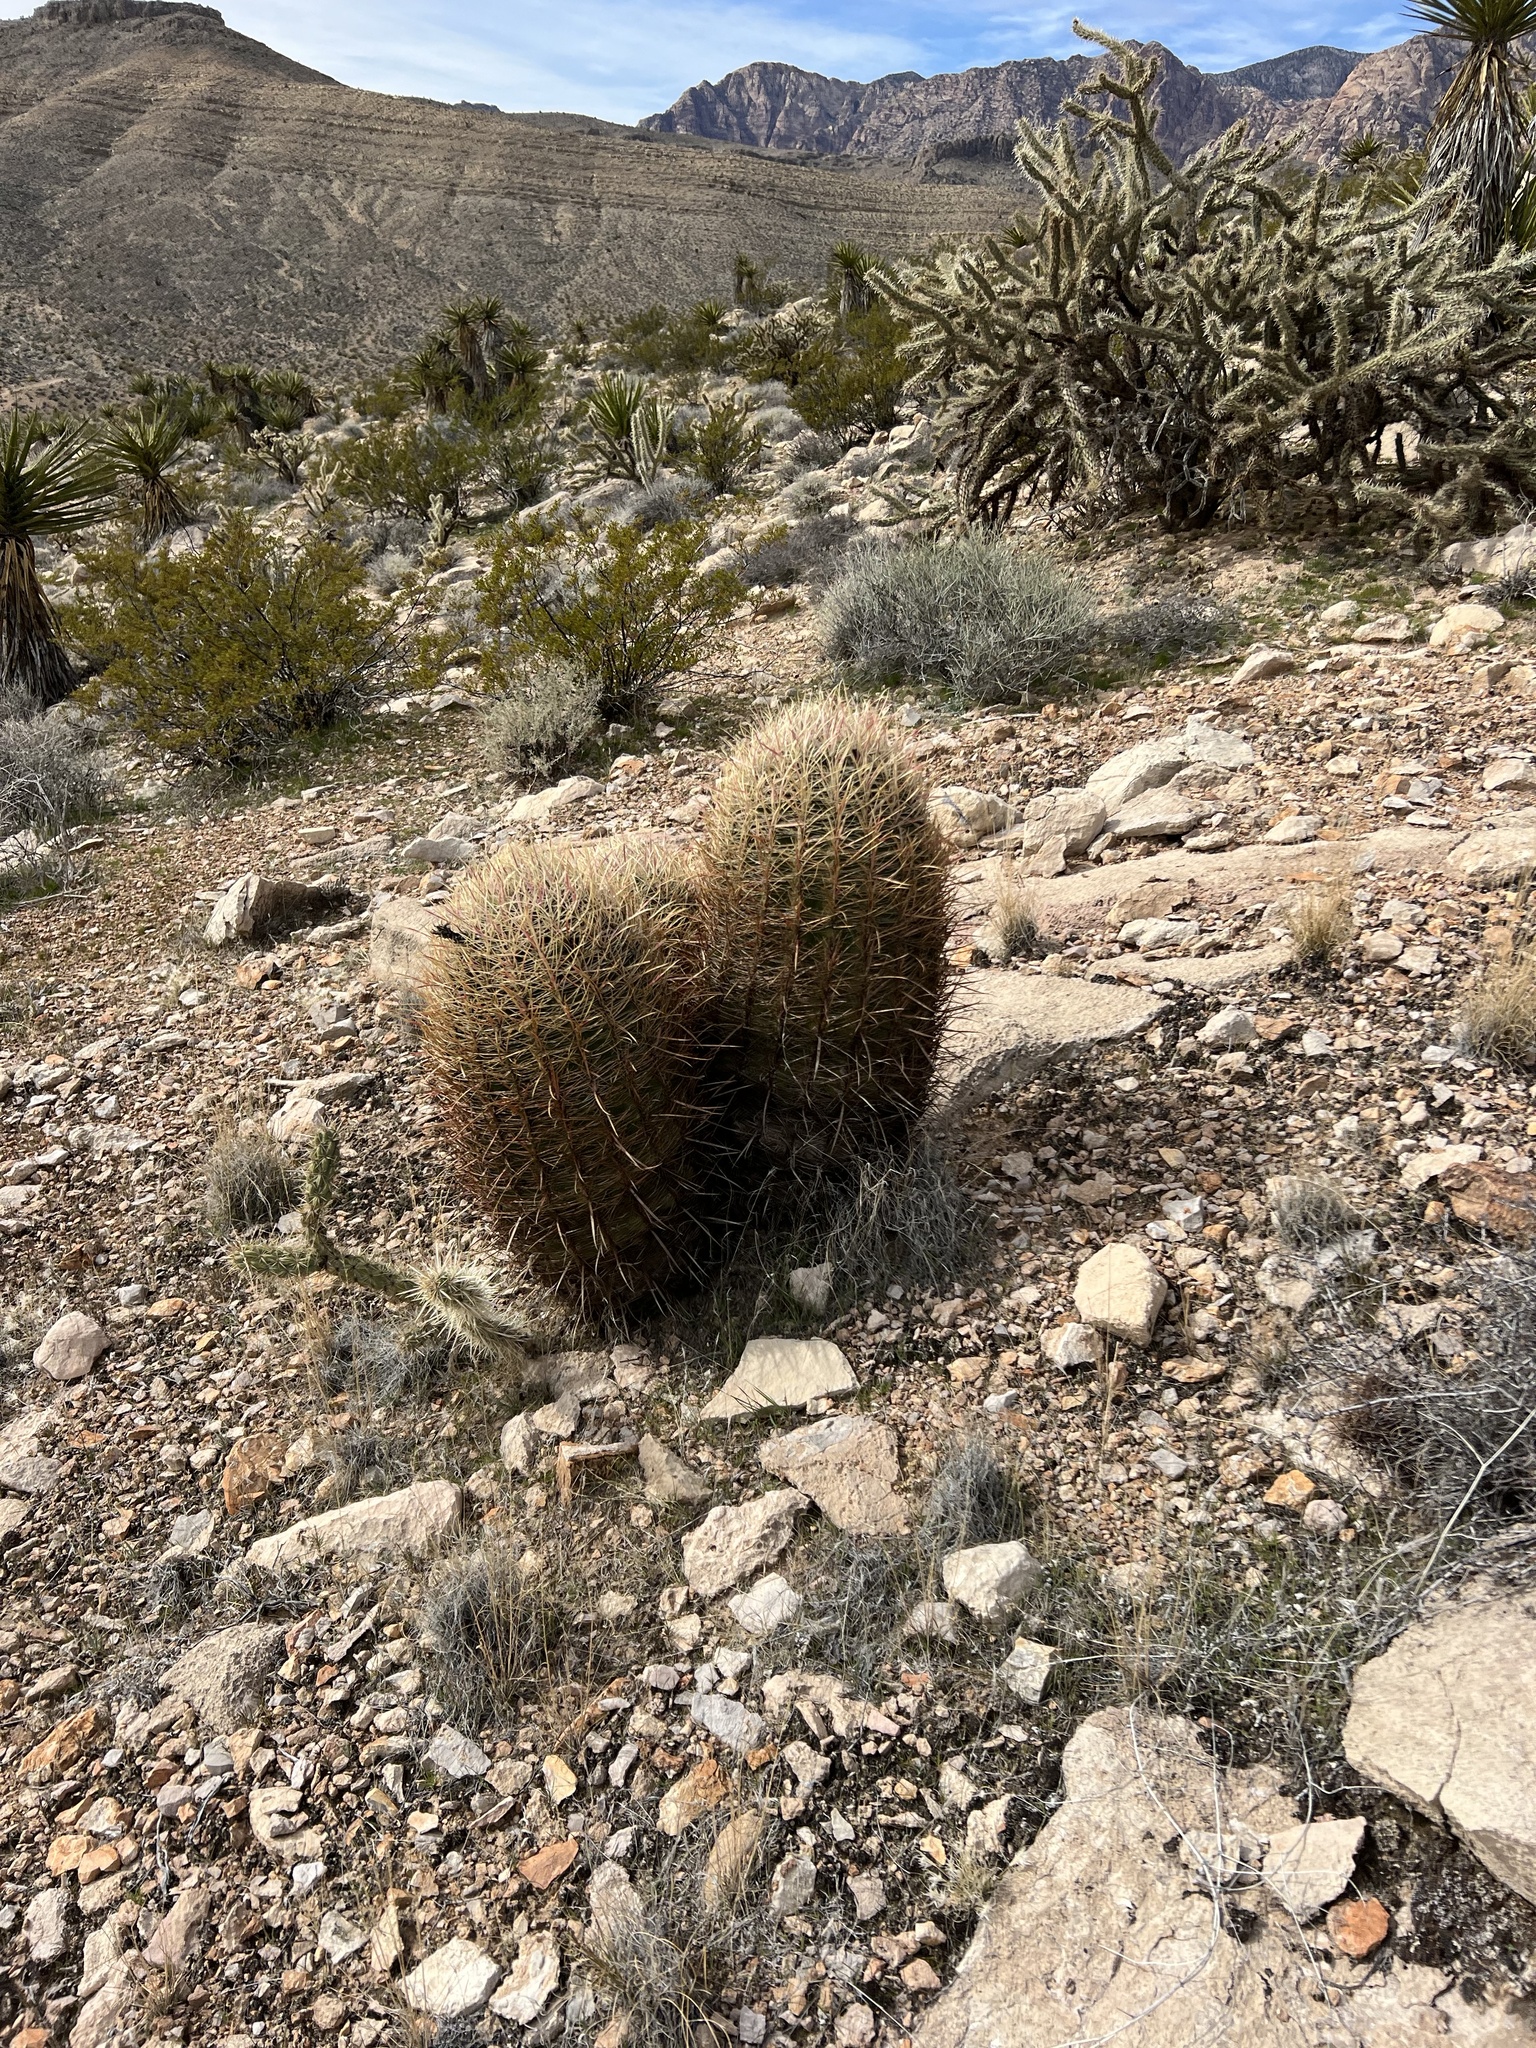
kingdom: Plantae
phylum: Tracheophyta
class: Magnoliopsida
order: Caryophyllales
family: Cactaceae
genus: Ferocactus
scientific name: Ferocactus cylindraceus
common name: California barrel cactus
